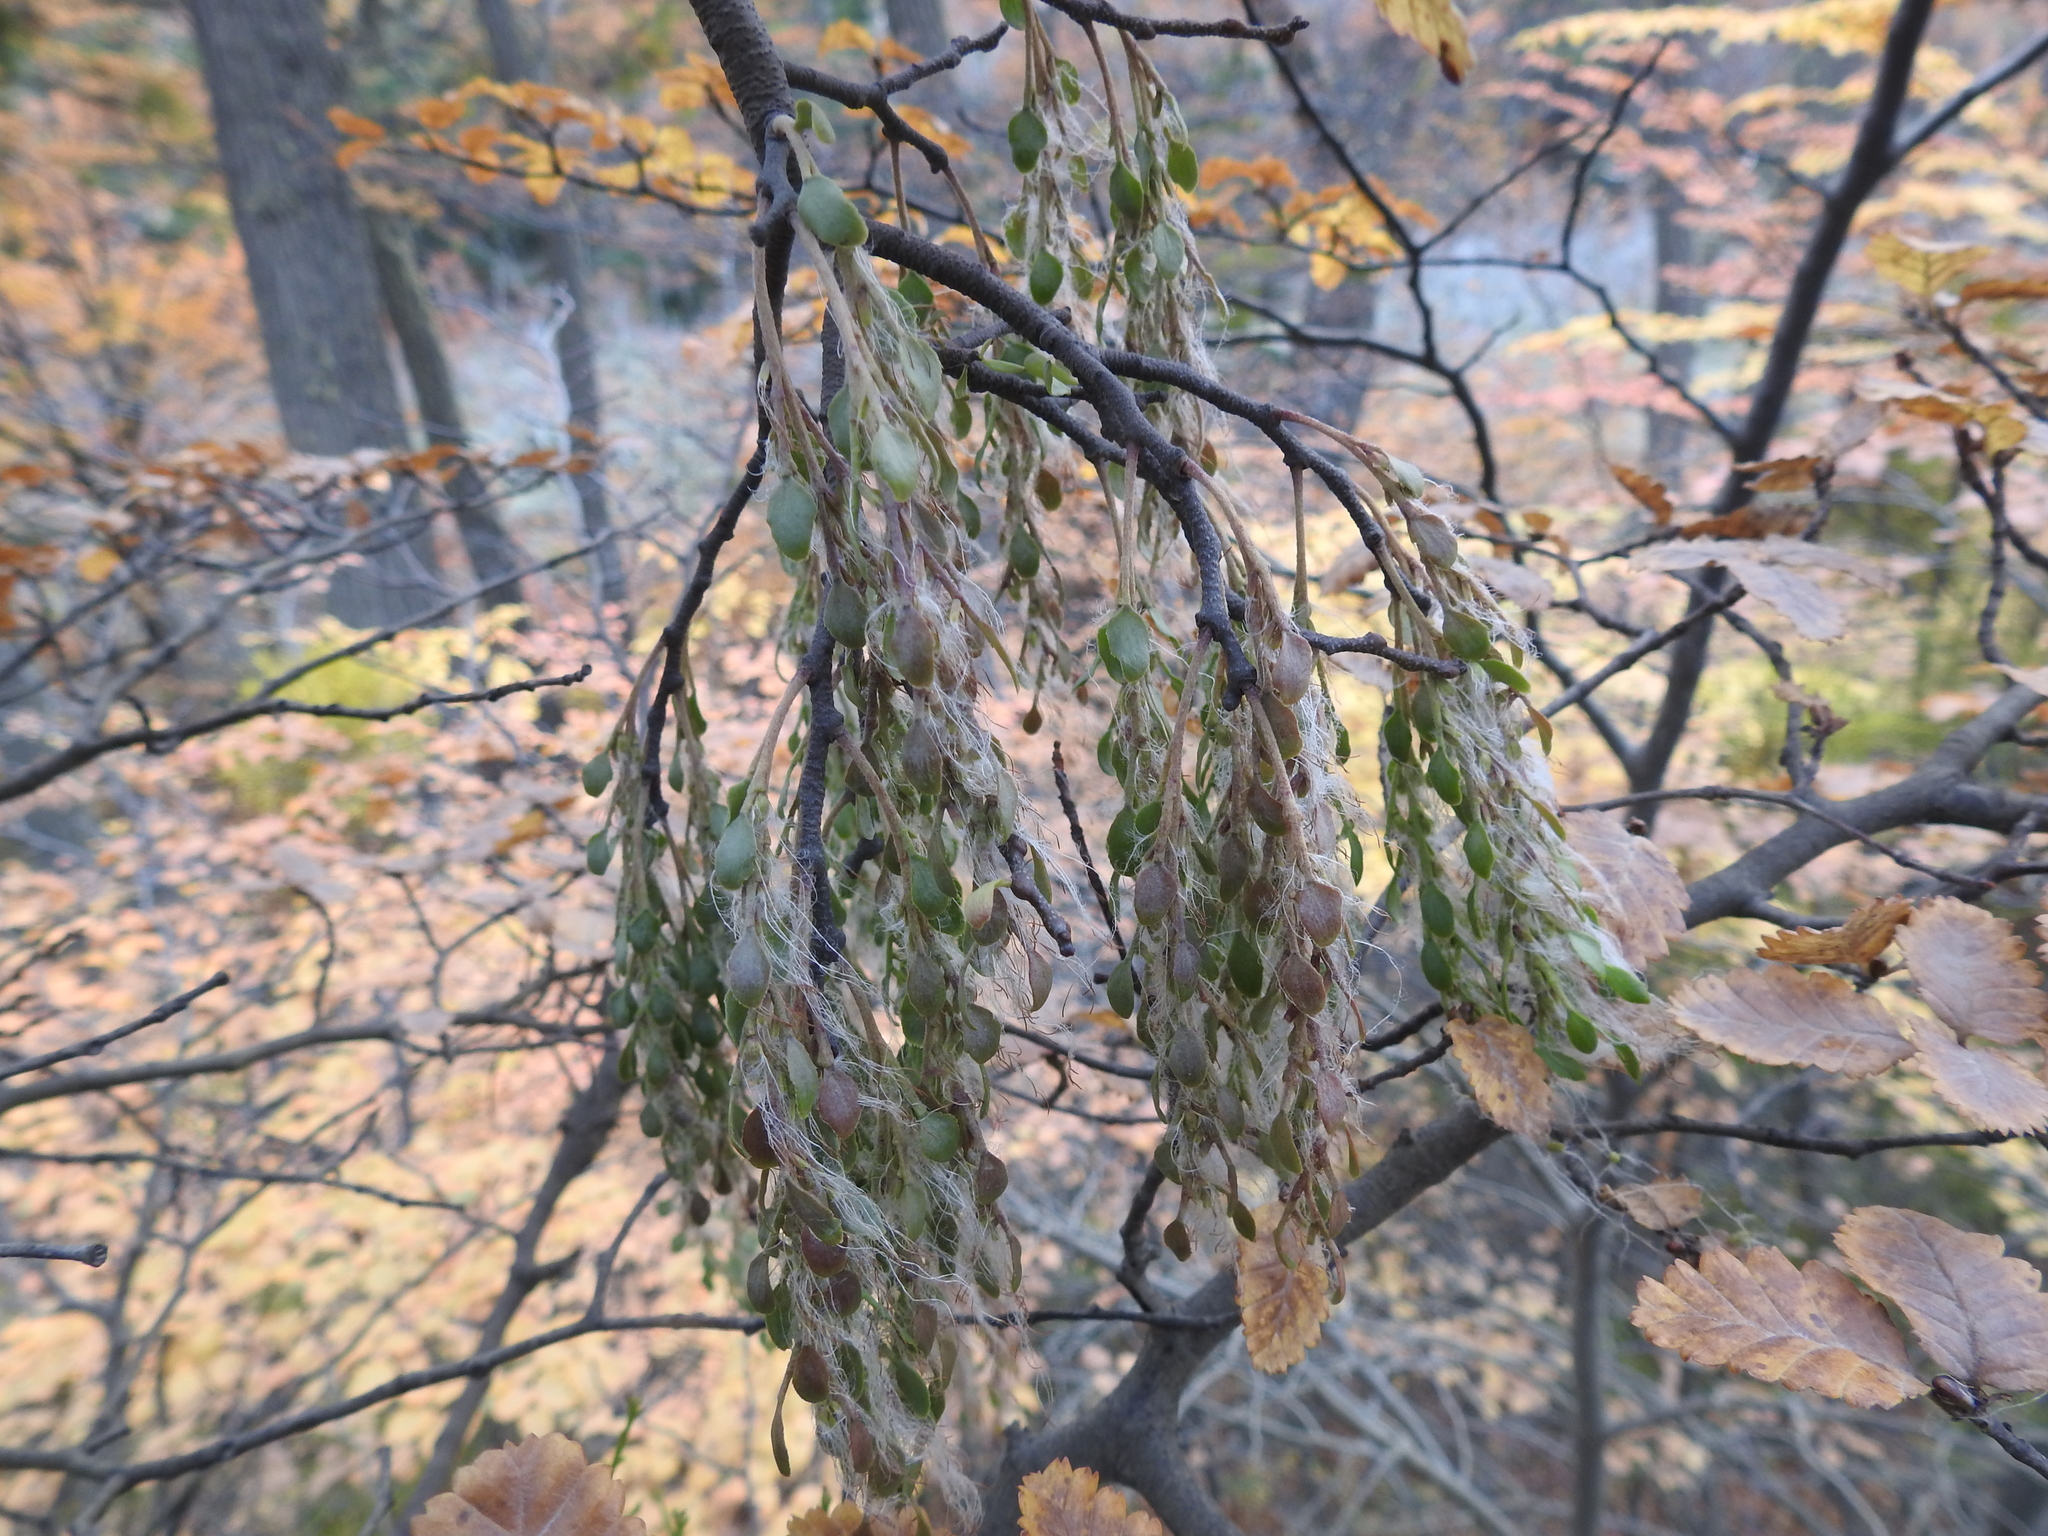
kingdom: Plantae
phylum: Tracheophyta
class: Magnoliopsida
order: Santalales
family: Misodendraceae
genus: Misodendrum
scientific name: Misodendrum quadriflorum
